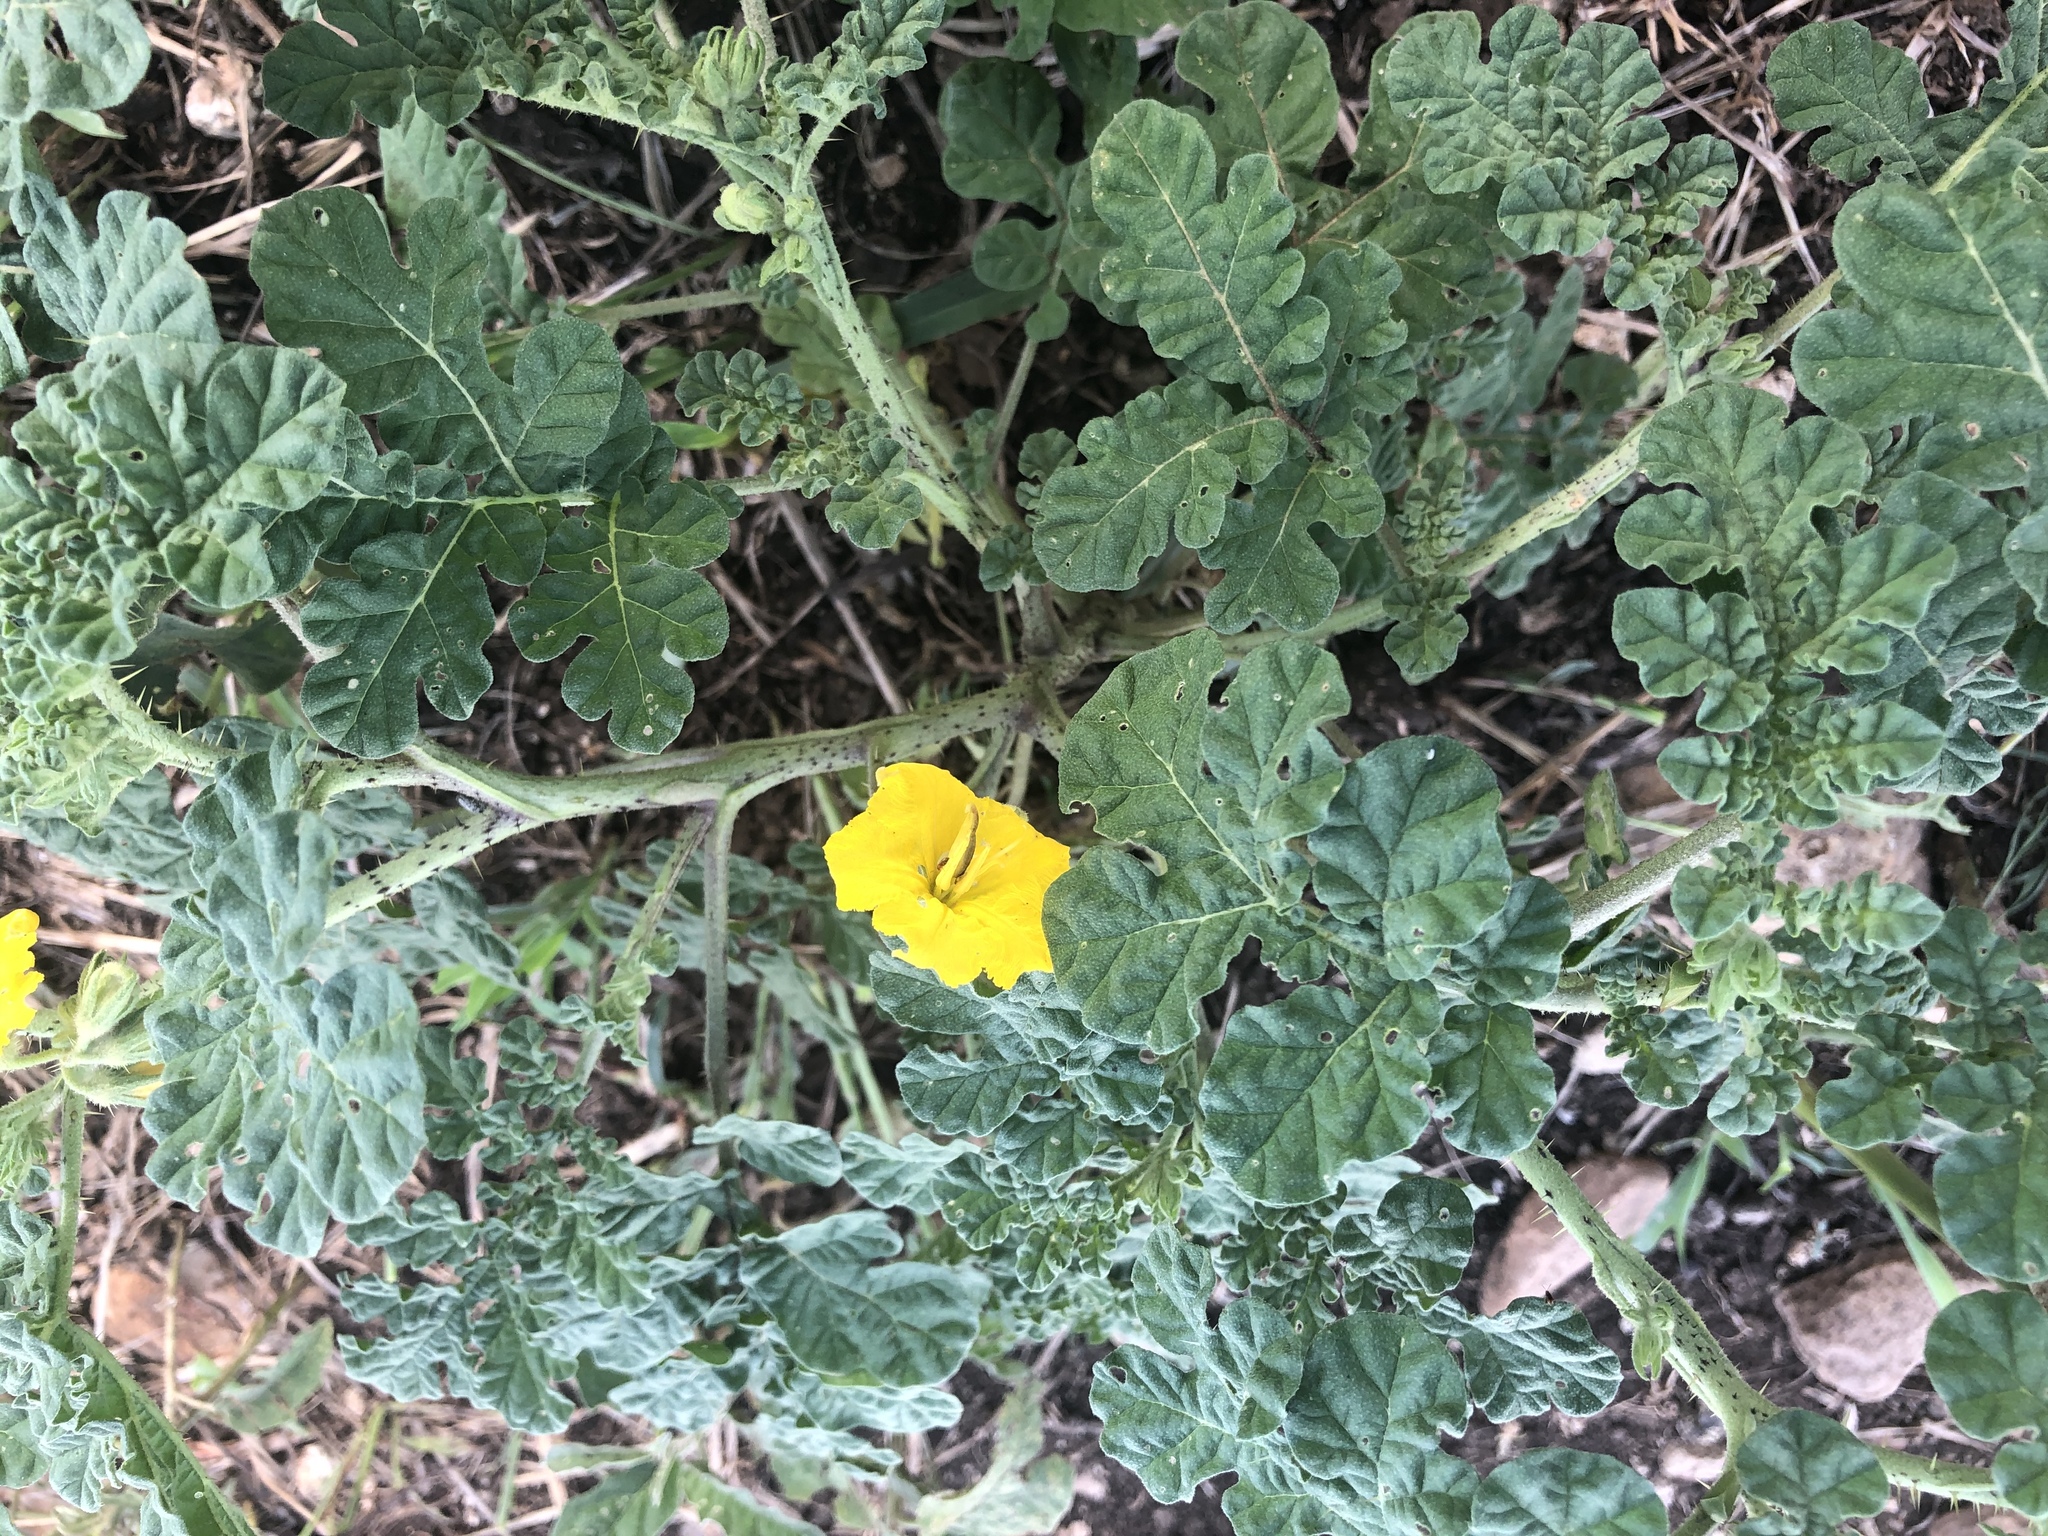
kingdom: Plantae
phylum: Tracheophyta
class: Magnoliopsida
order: Solanales
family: Solanaceae
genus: Solanum
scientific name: Solanum angustifolium
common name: Buffalobur nightshade
